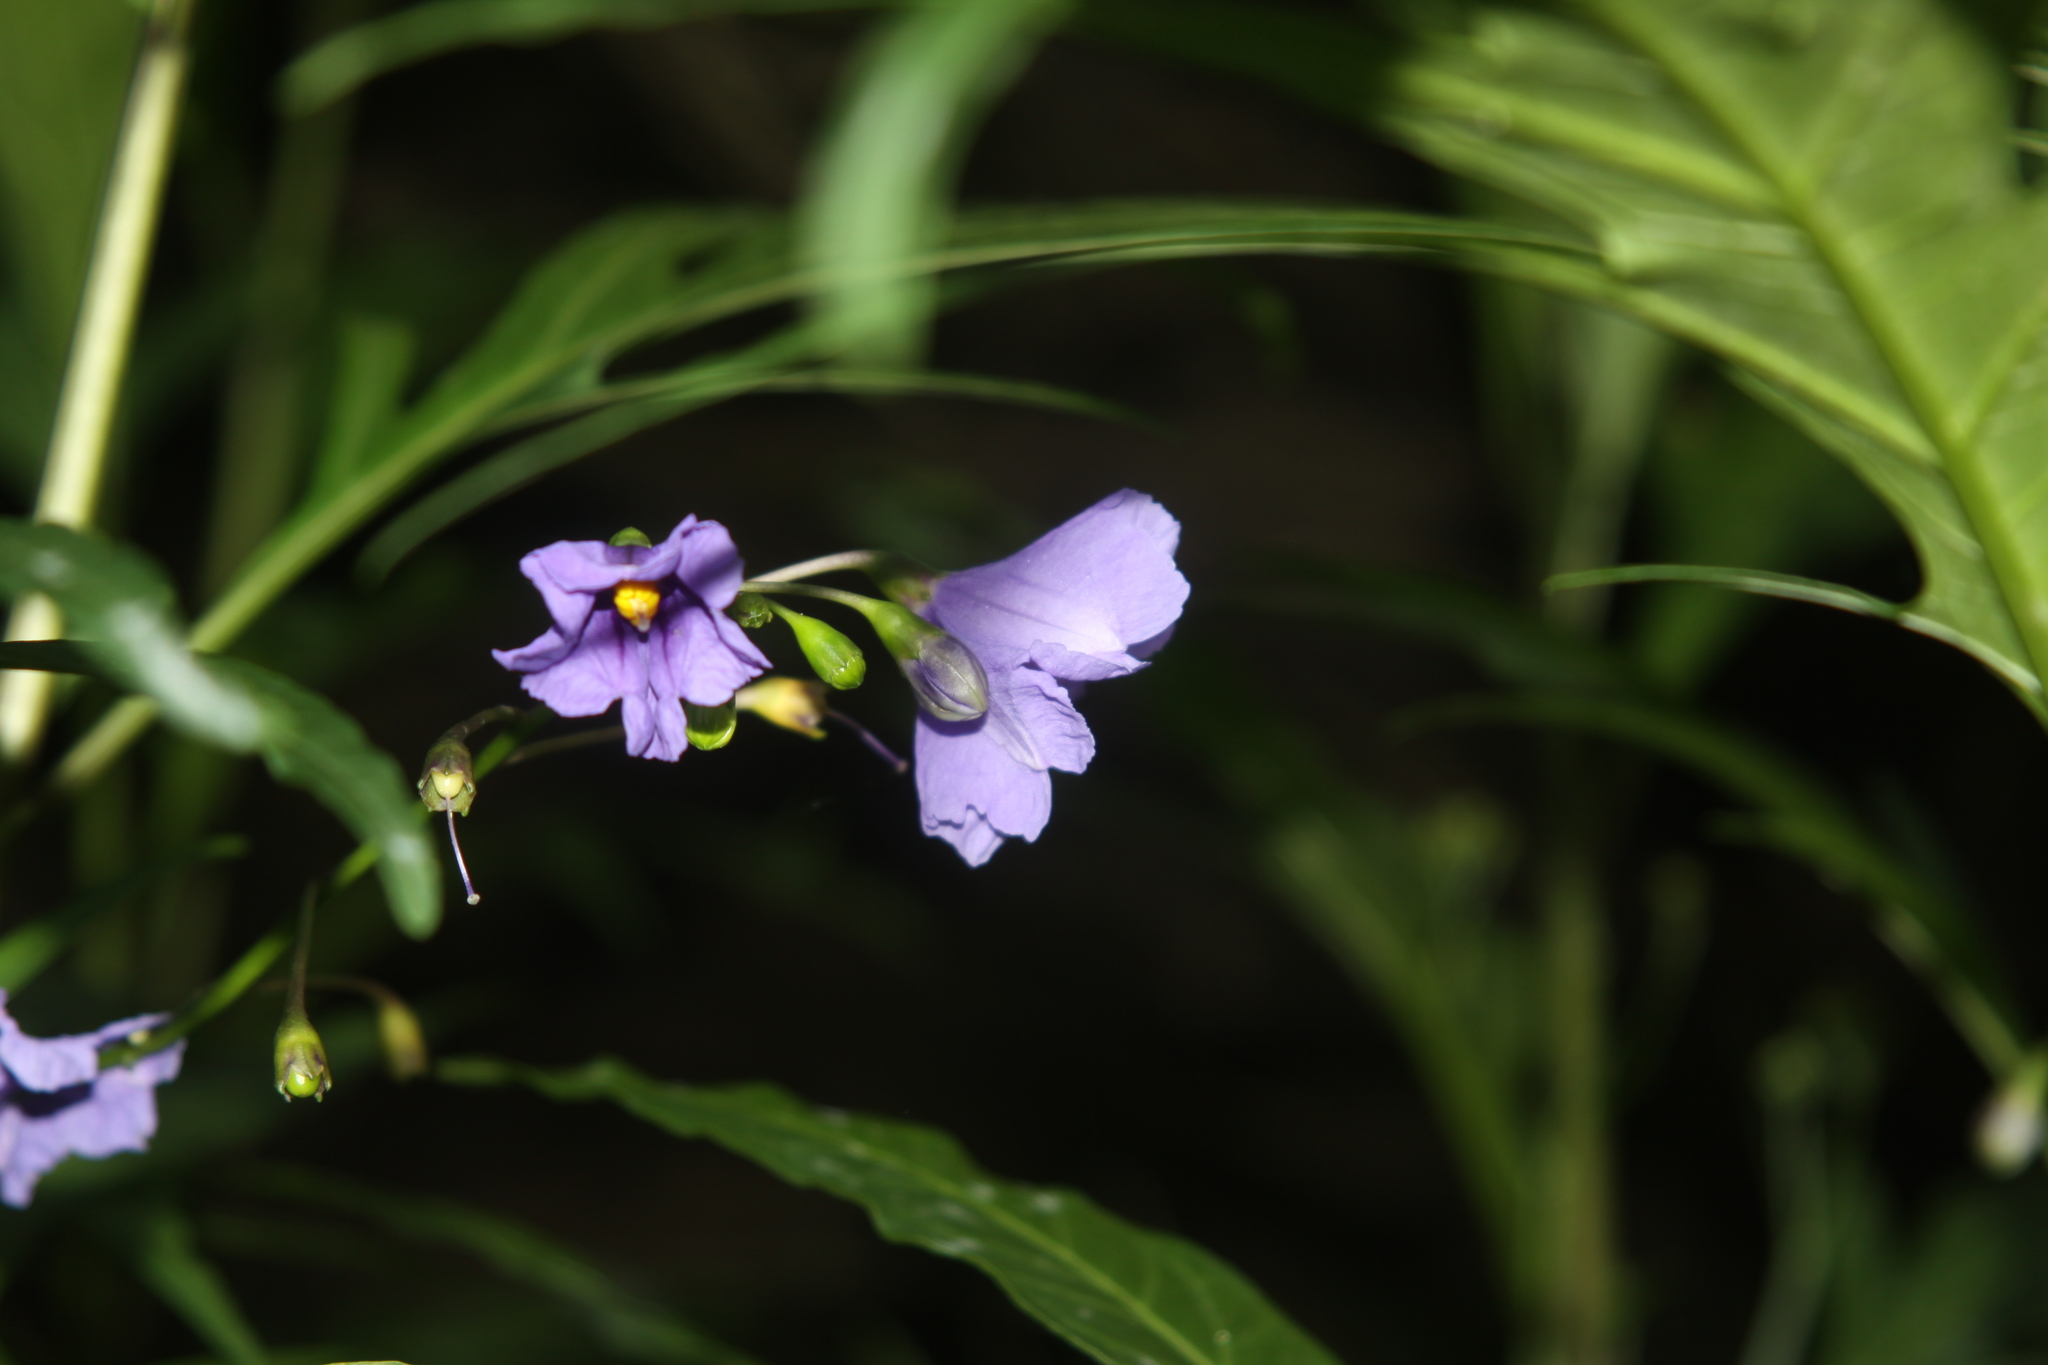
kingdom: Plantae
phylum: Tracheophyta
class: Magnoliopsida
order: Solanales
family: Solanaceae
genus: Solanum
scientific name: Solanum laciniatum
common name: Kangaroo-apple
